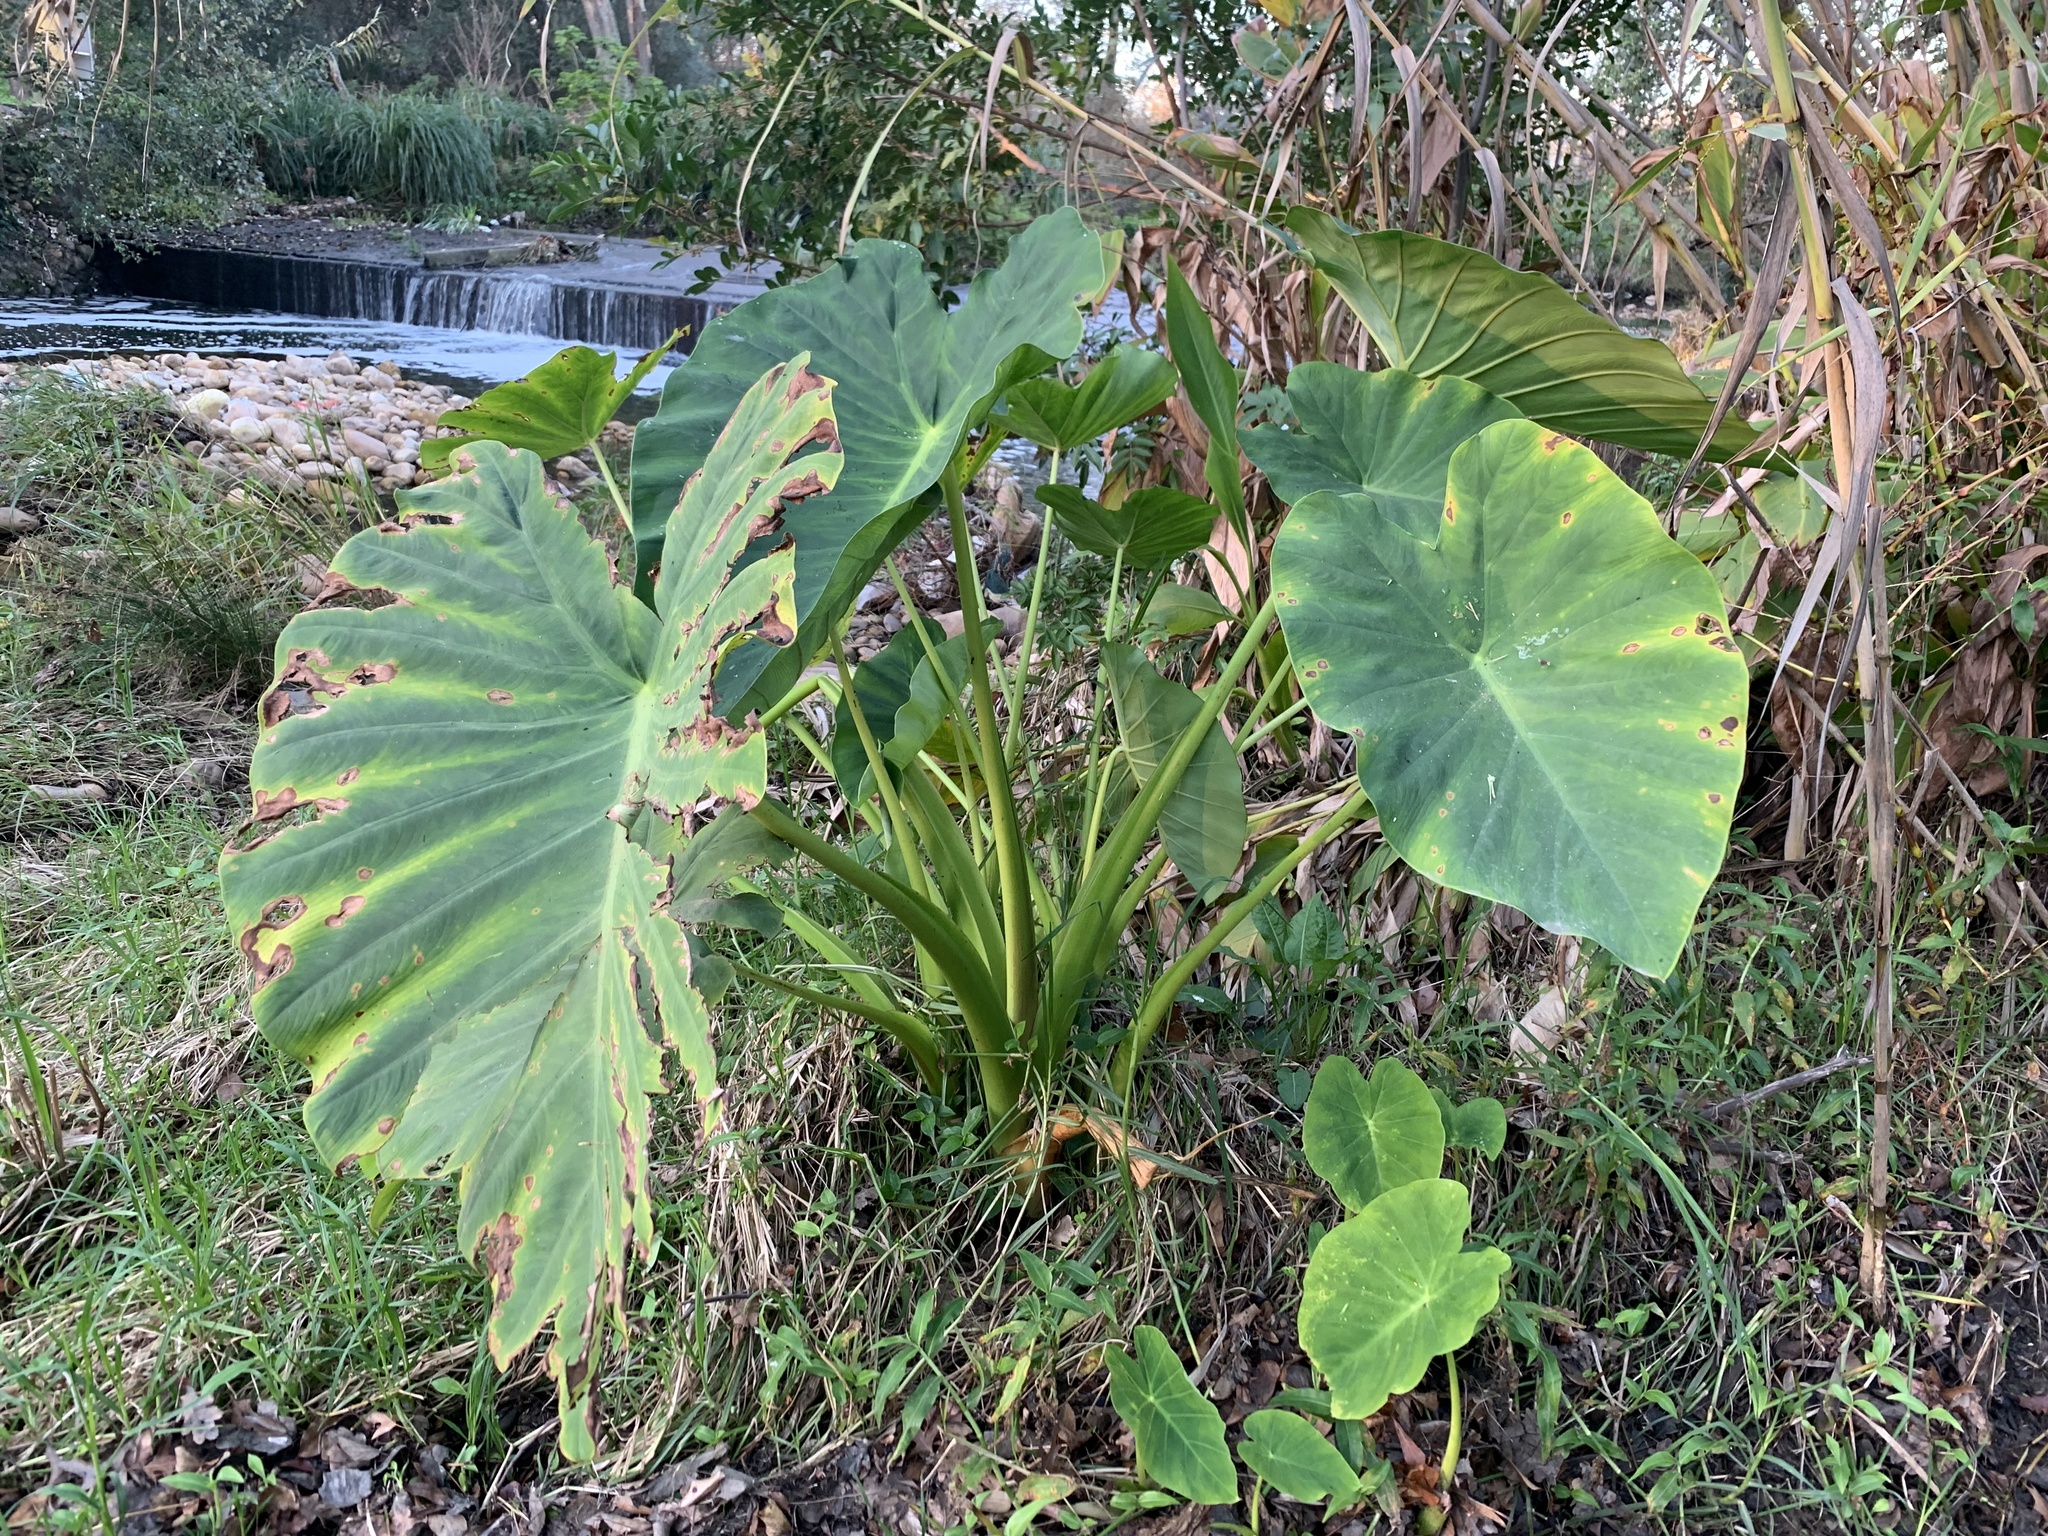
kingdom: Plantae
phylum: Tracheophyta
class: Liliopsida
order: Alismatales
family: Araceae
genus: Colocasia
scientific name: Colocasia esculenta
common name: Taro
